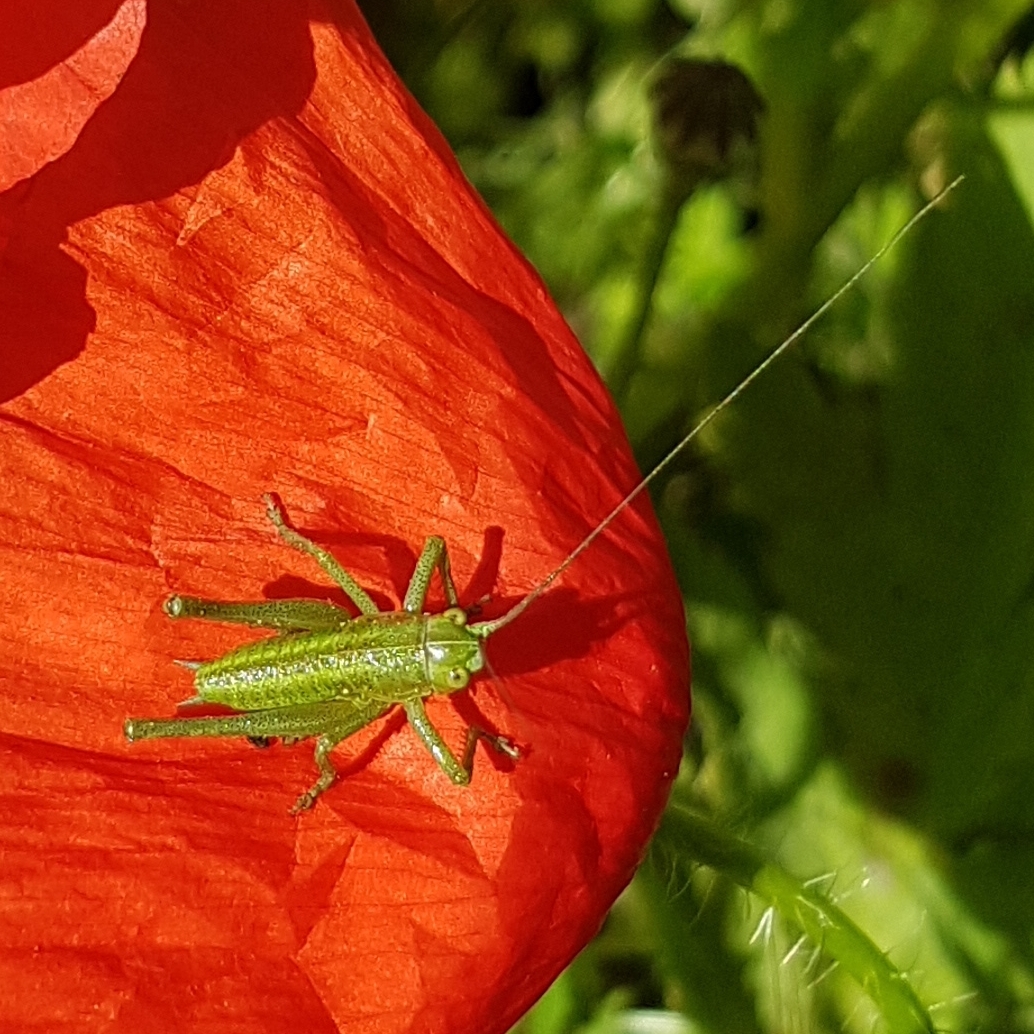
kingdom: Animalia
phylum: Arthropoda
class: Insecta
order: Orthoptera
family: Tettigoniidae
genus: Tettigonia
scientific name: Tettigonia viridissima
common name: Great green bush-cricket
